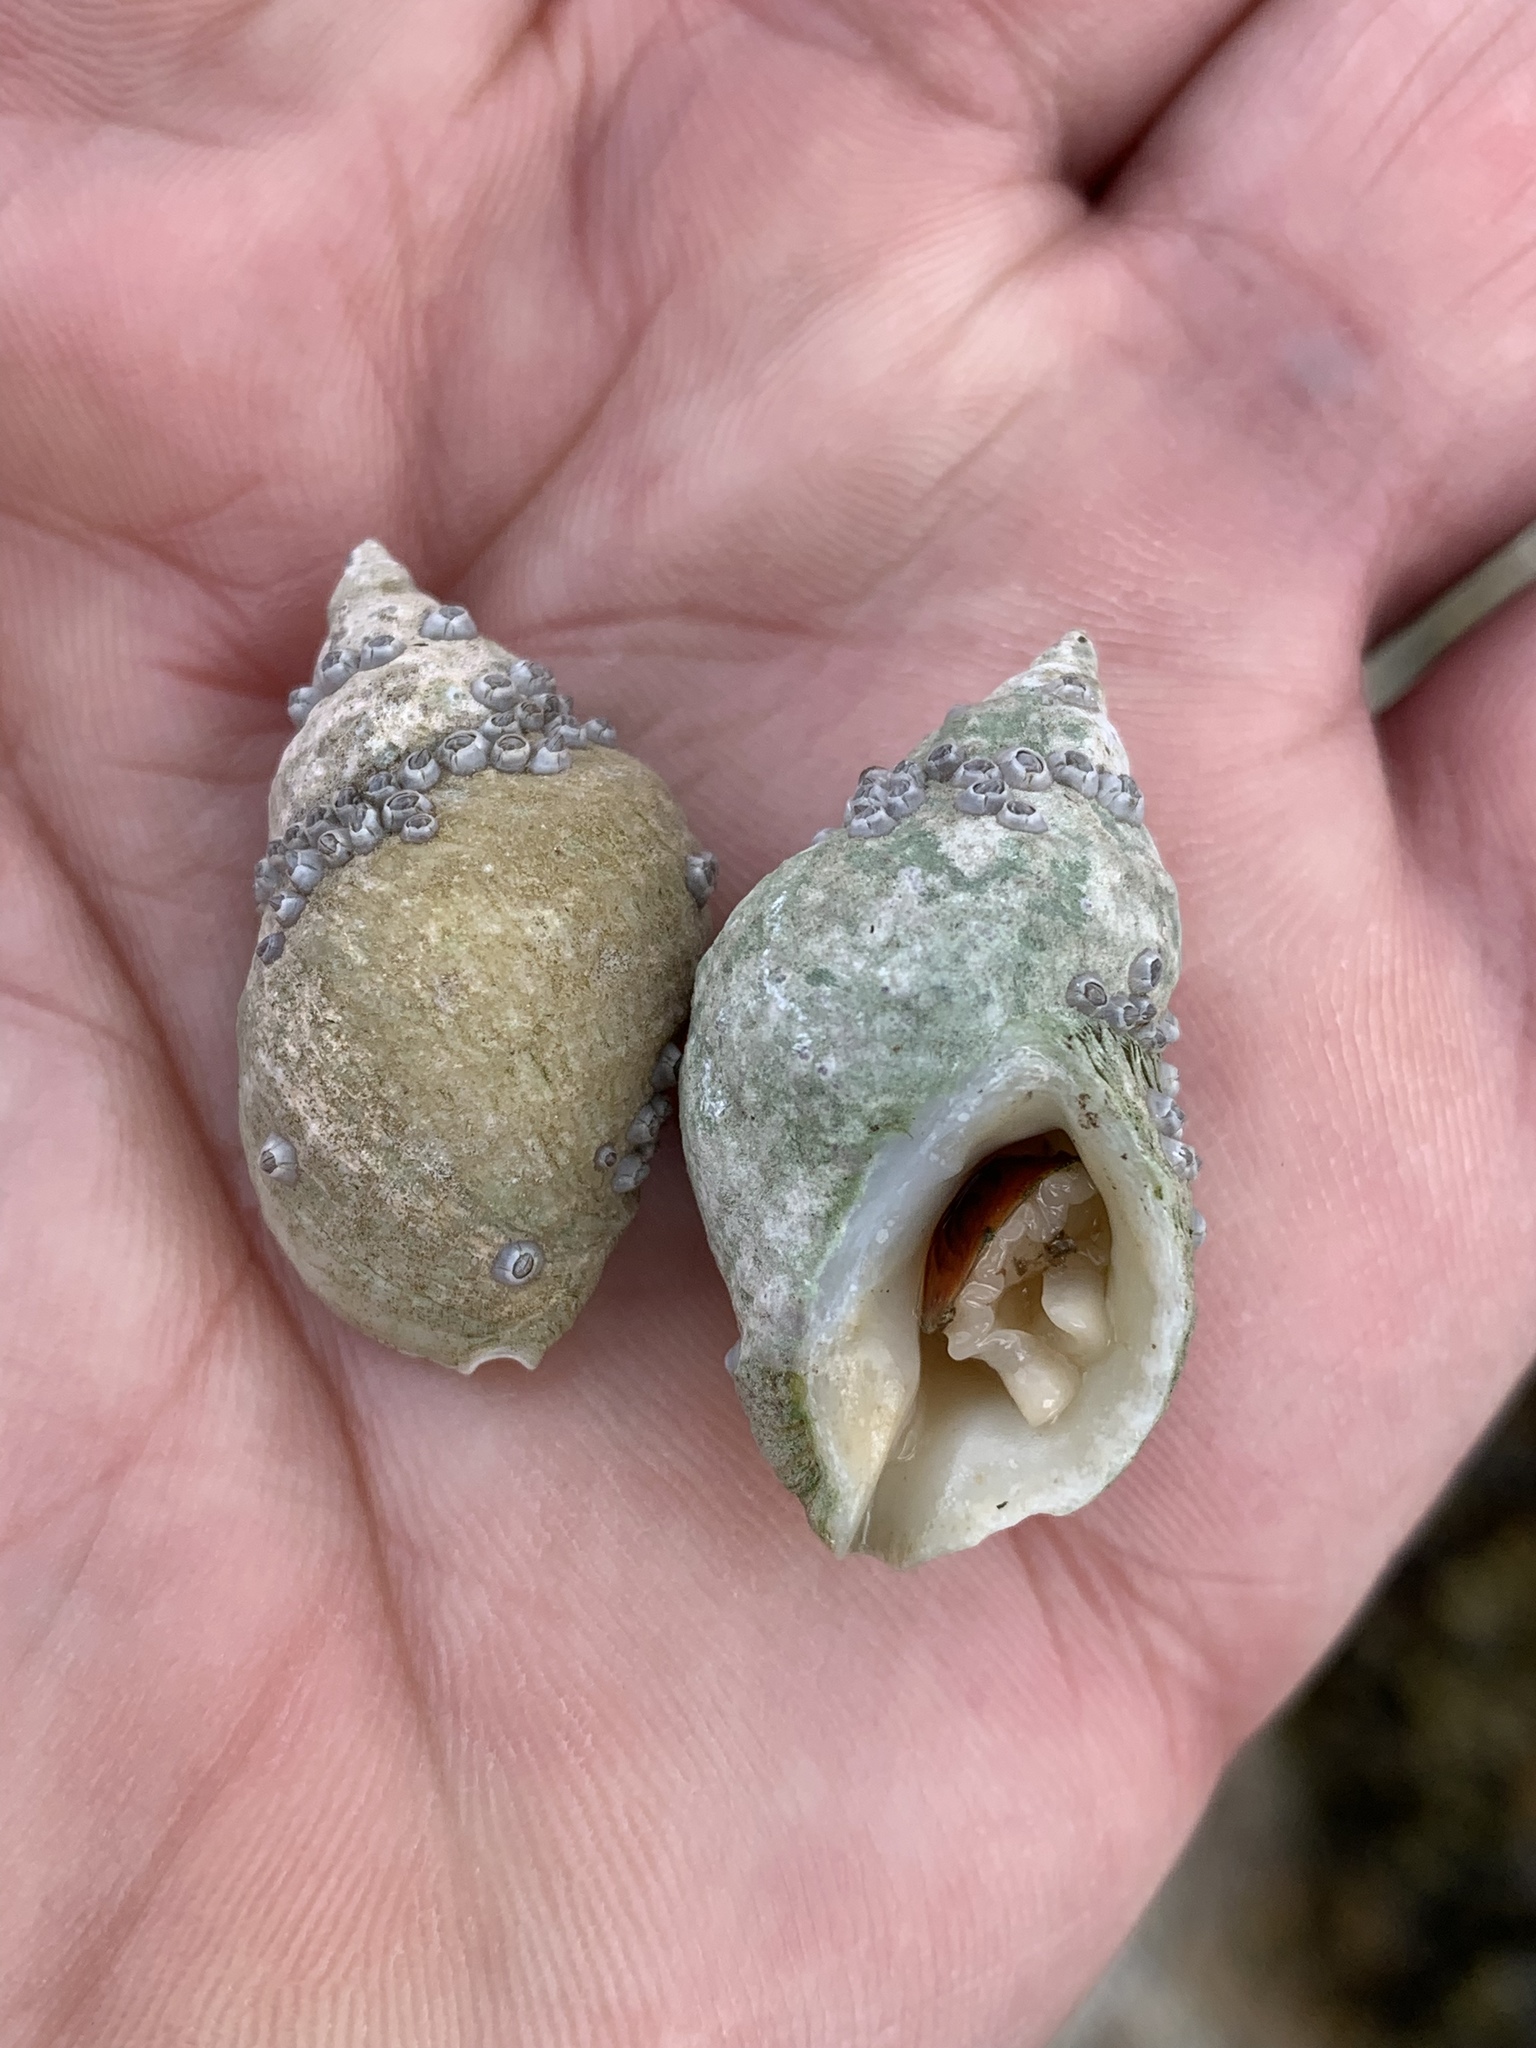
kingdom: Animalia
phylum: Mollusca
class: Gastropoda
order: Neogastropoda
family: Muricidae
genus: Nucella
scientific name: Nucella lapillus
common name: Dog whelk
